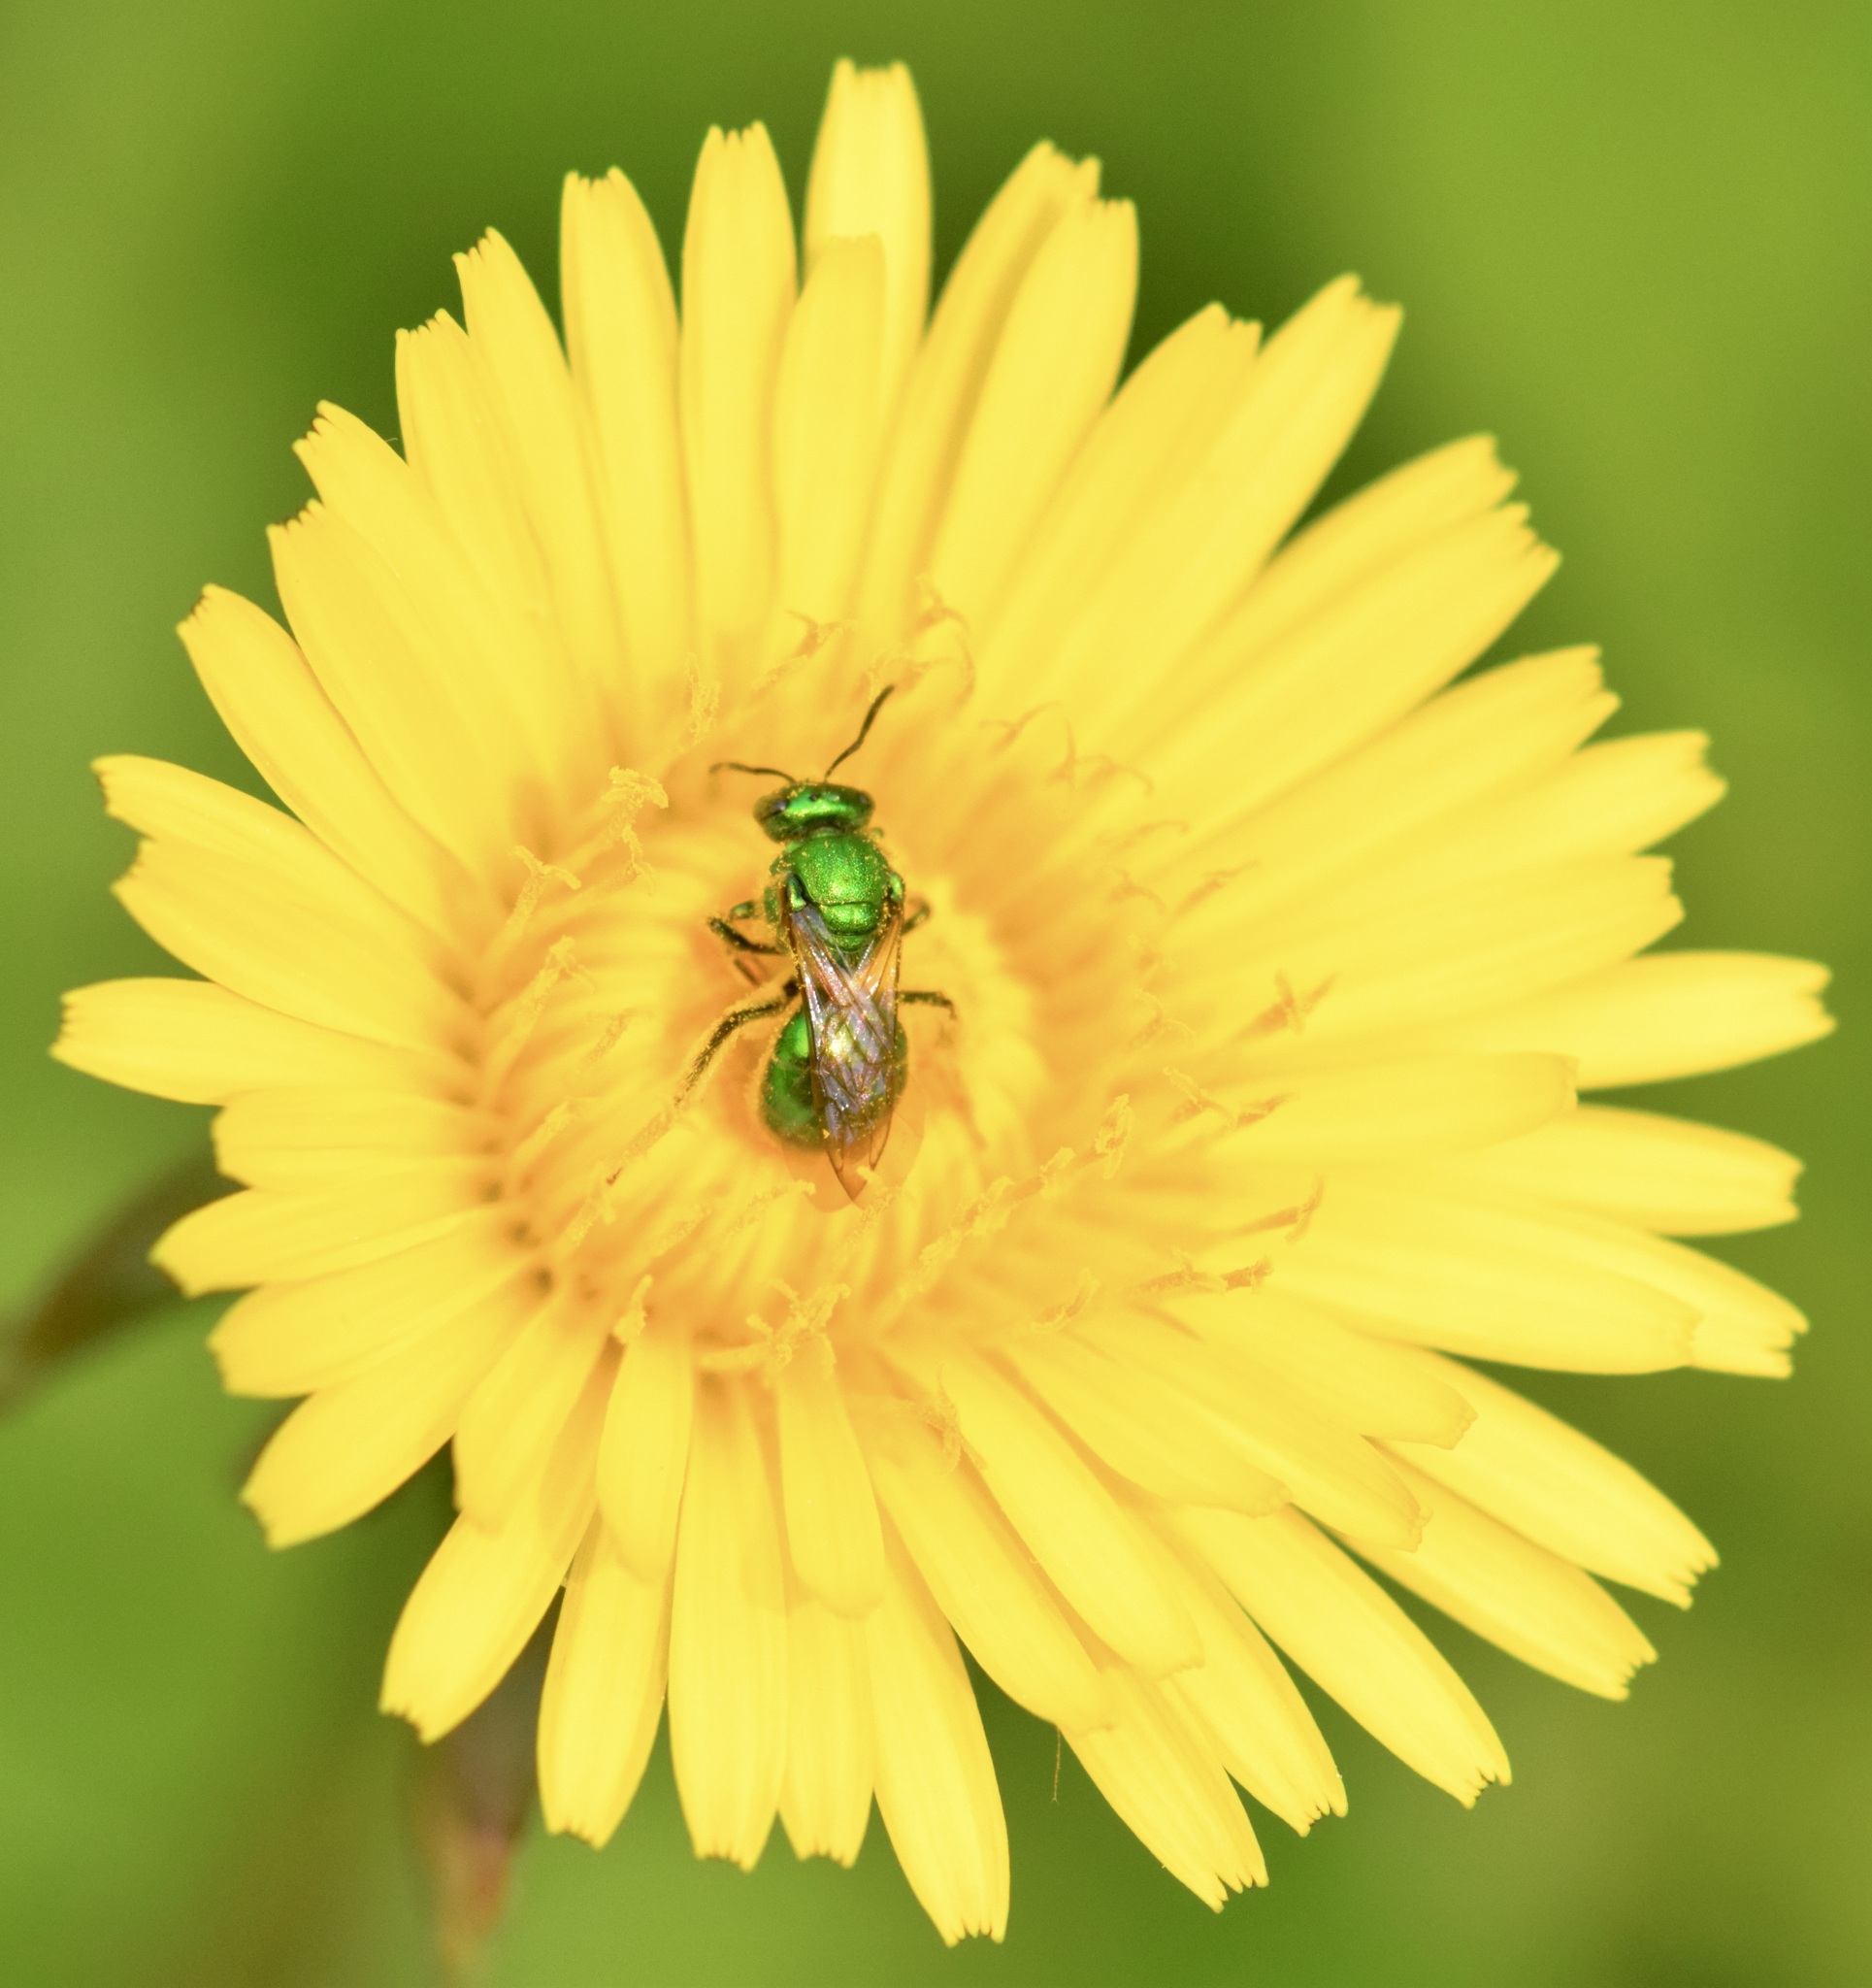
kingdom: Animalia
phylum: Arthropoda
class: Insecta
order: Hymenoptera
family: Halictidae
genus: Augochloropsis
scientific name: Augochloropsis viridula
